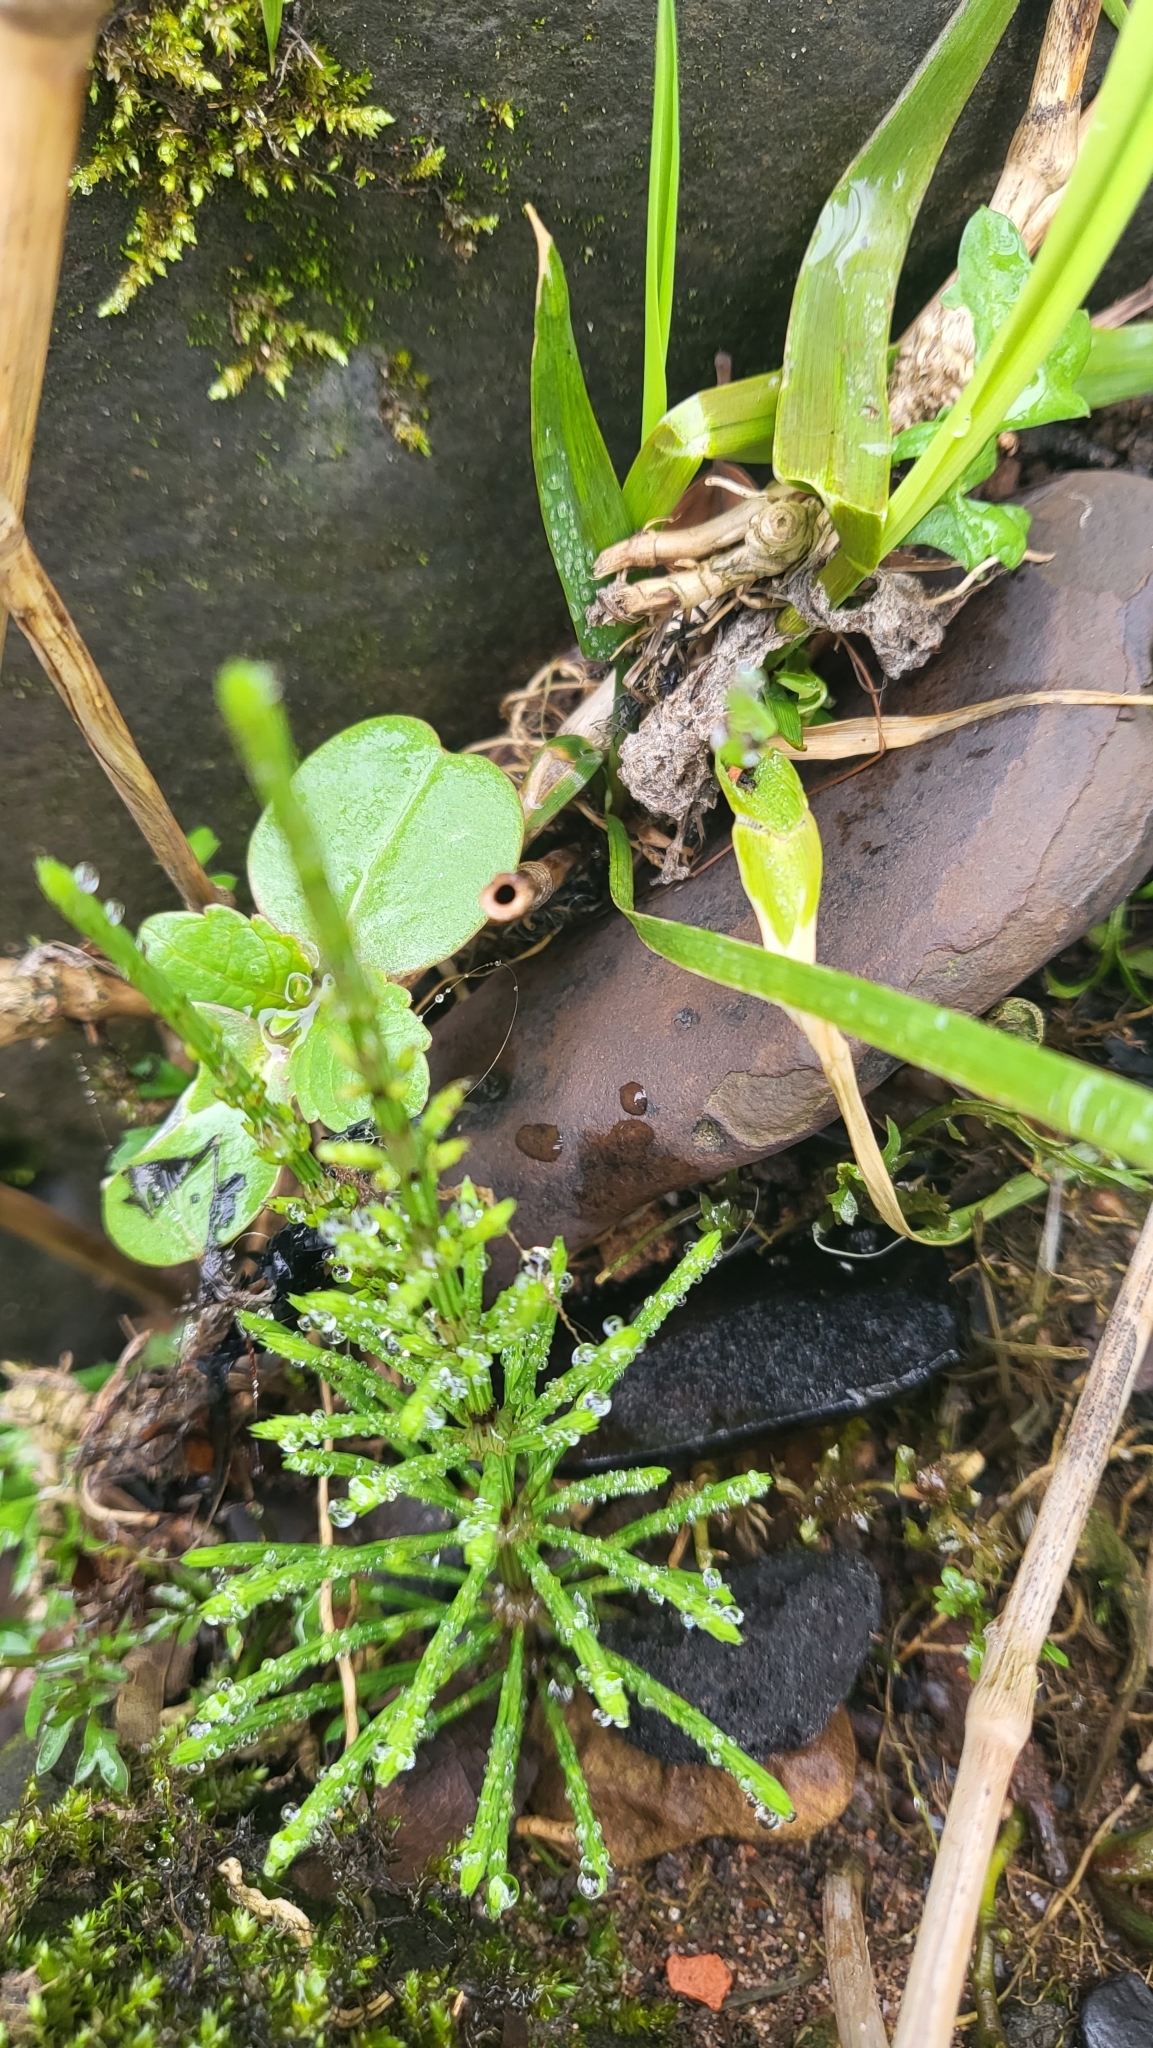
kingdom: Plantae
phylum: Tracheophyta
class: Polypodiopsida
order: Equisetales
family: Equisetaceae
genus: Equisetum
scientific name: Equisetum arvense
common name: Field horsetail
